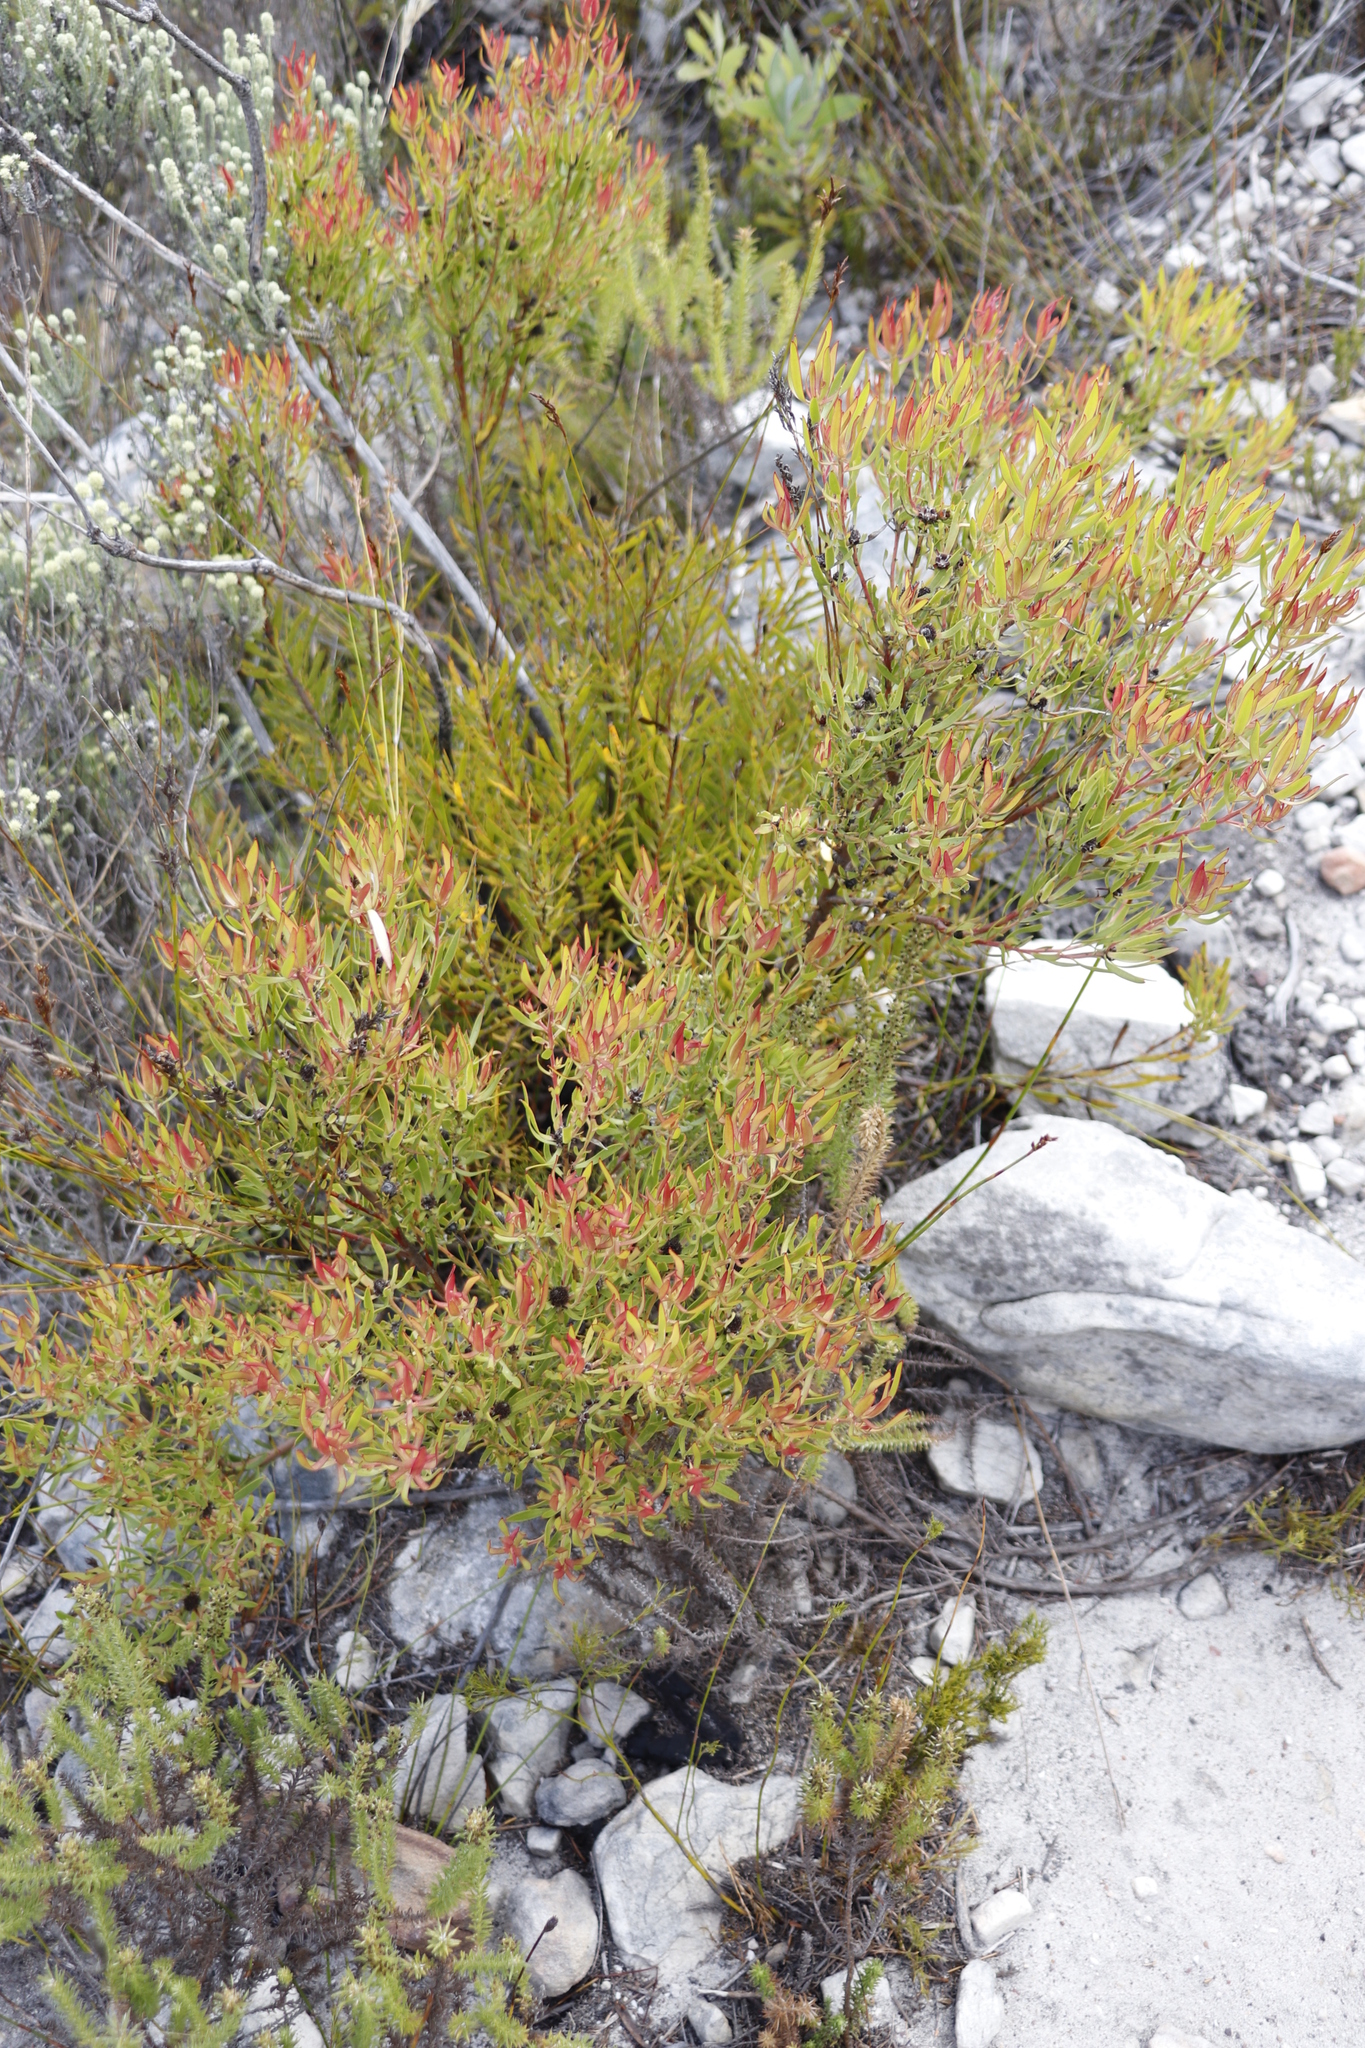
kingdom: Plantae
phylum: Tracheophyta
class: Magnoliopsida
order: Proteales
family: Proteaceae
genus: Leucadendron
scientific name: Leucadendron spissifolium
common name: Spear-leaf conebush
